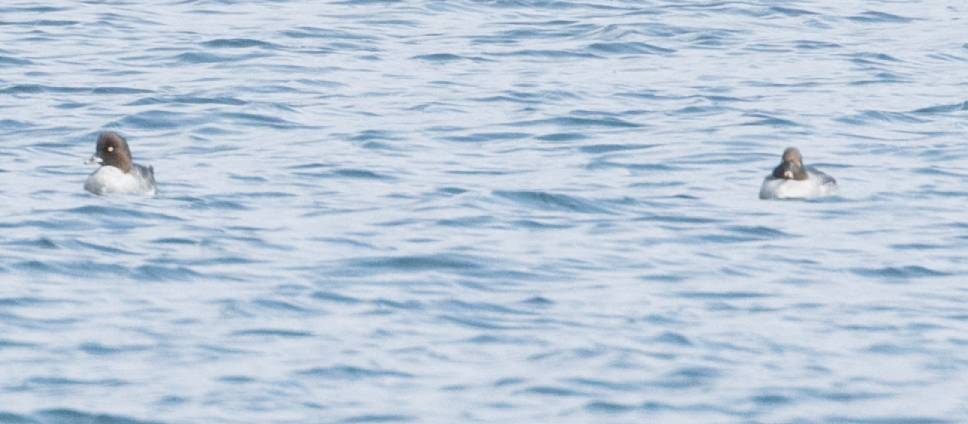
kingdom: Animalia
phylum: Chordata
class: Aves
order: Anseriformes
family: Anatidae
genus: Bucephala
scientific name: Bucephala clangula
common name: Common goldeneye
